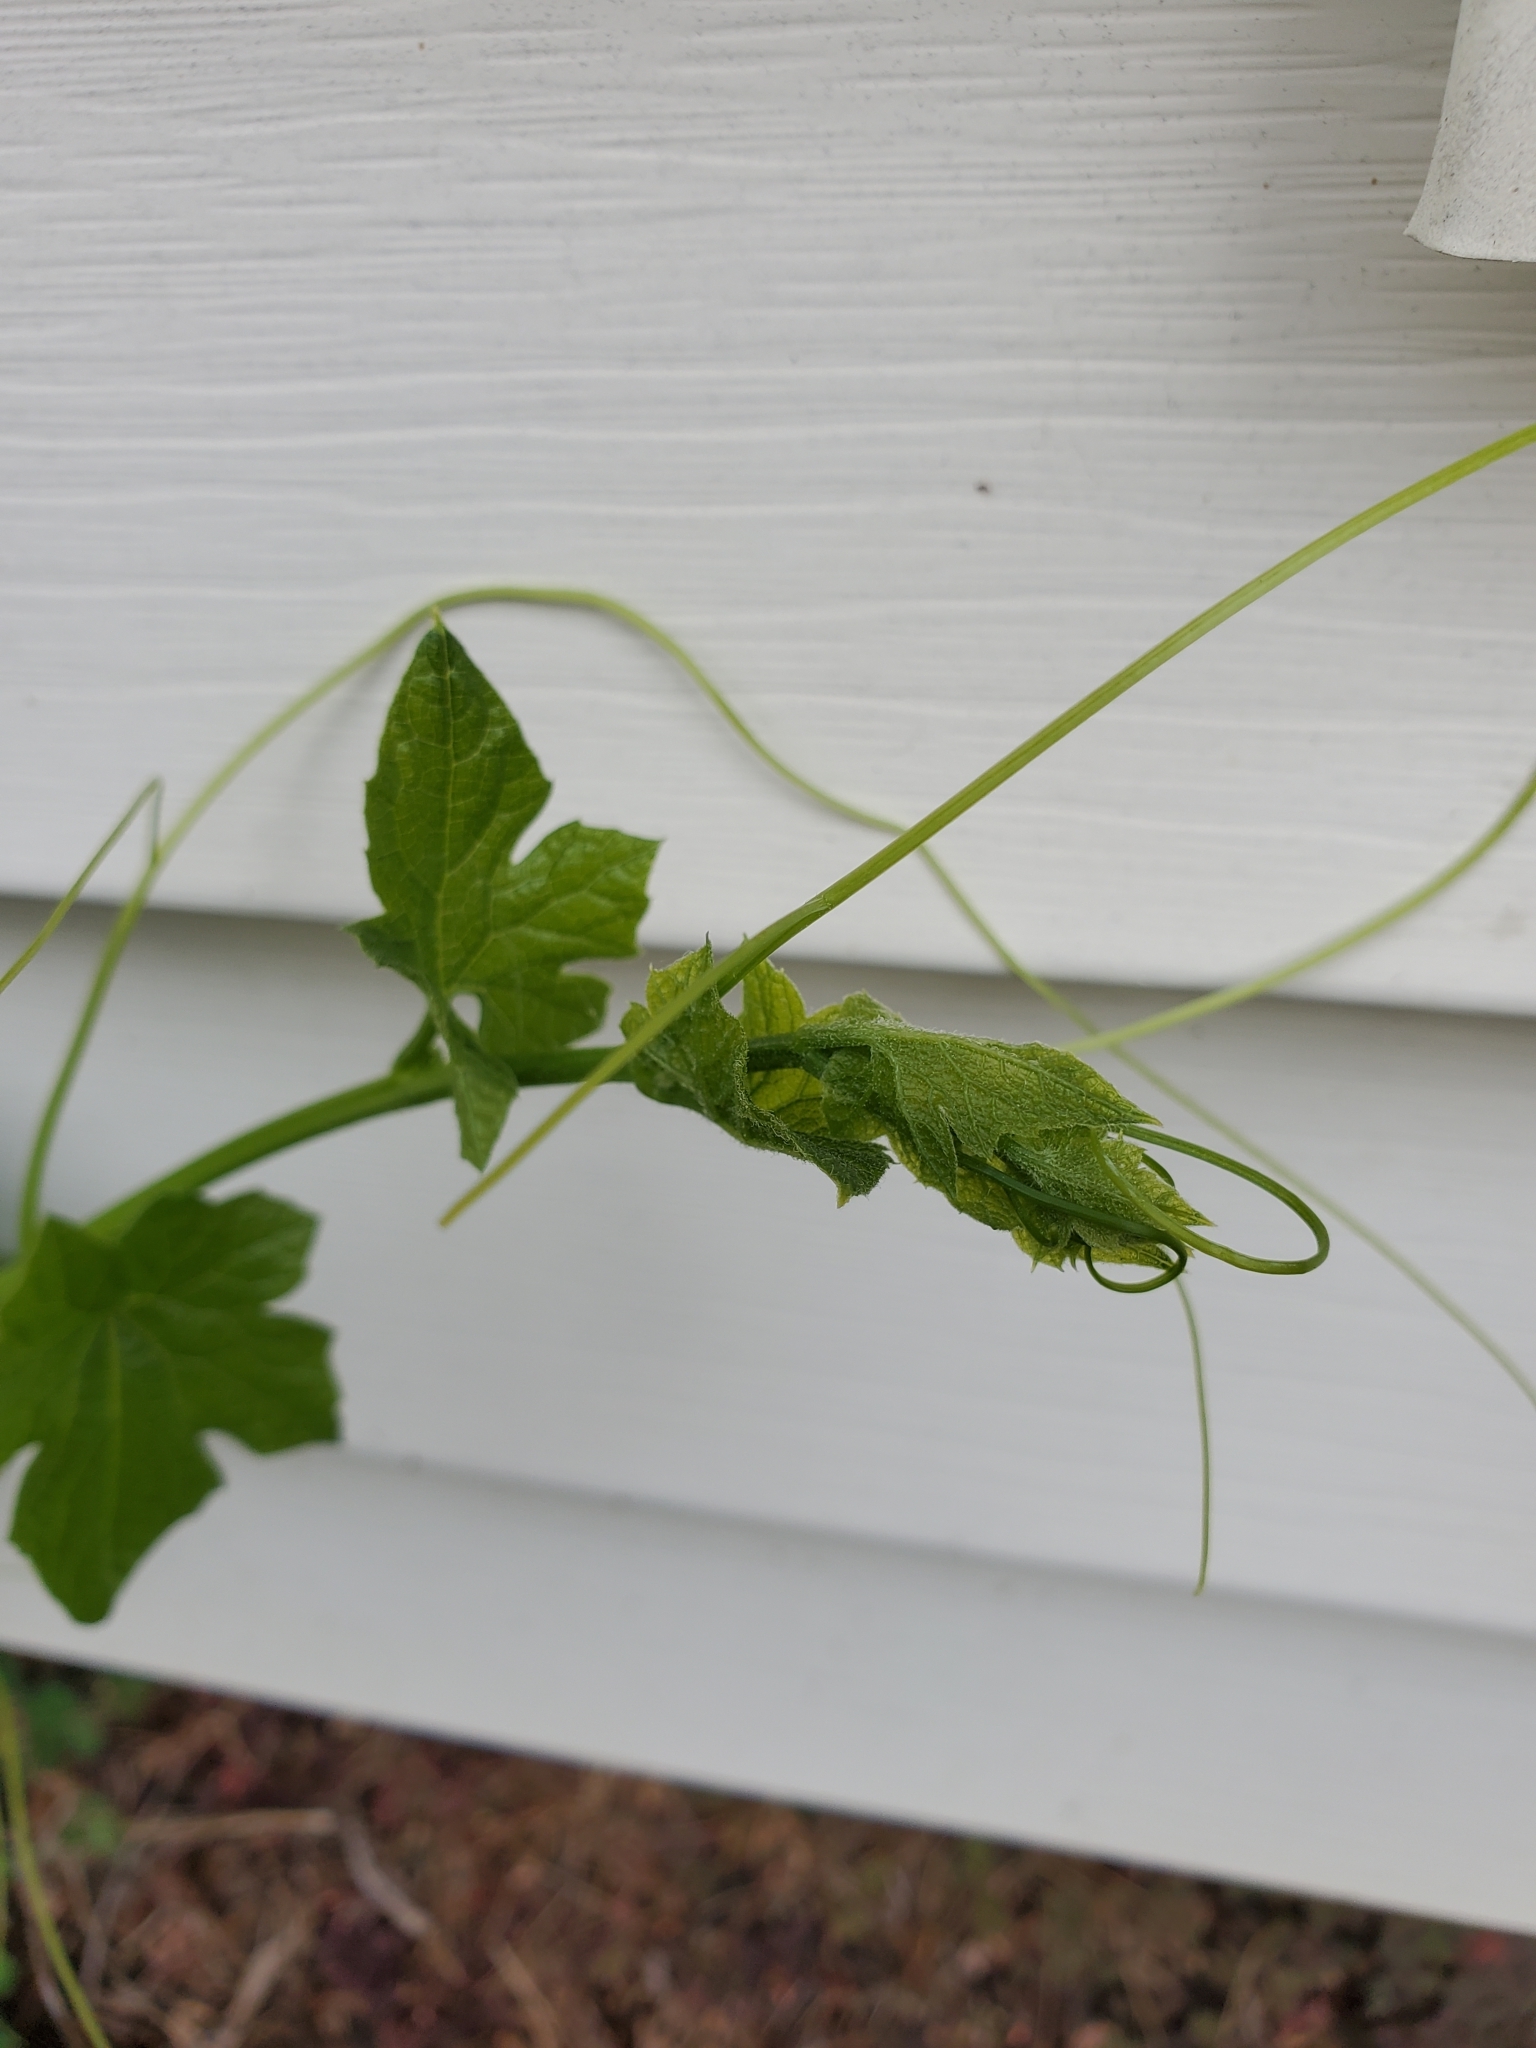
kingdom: Plantae
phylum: Tracheophyta
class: Magnoliopsida
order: Cucurbitales
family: Cucurbitaceae
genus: Marah
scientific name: Marah oregana
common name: Coastal manroot
